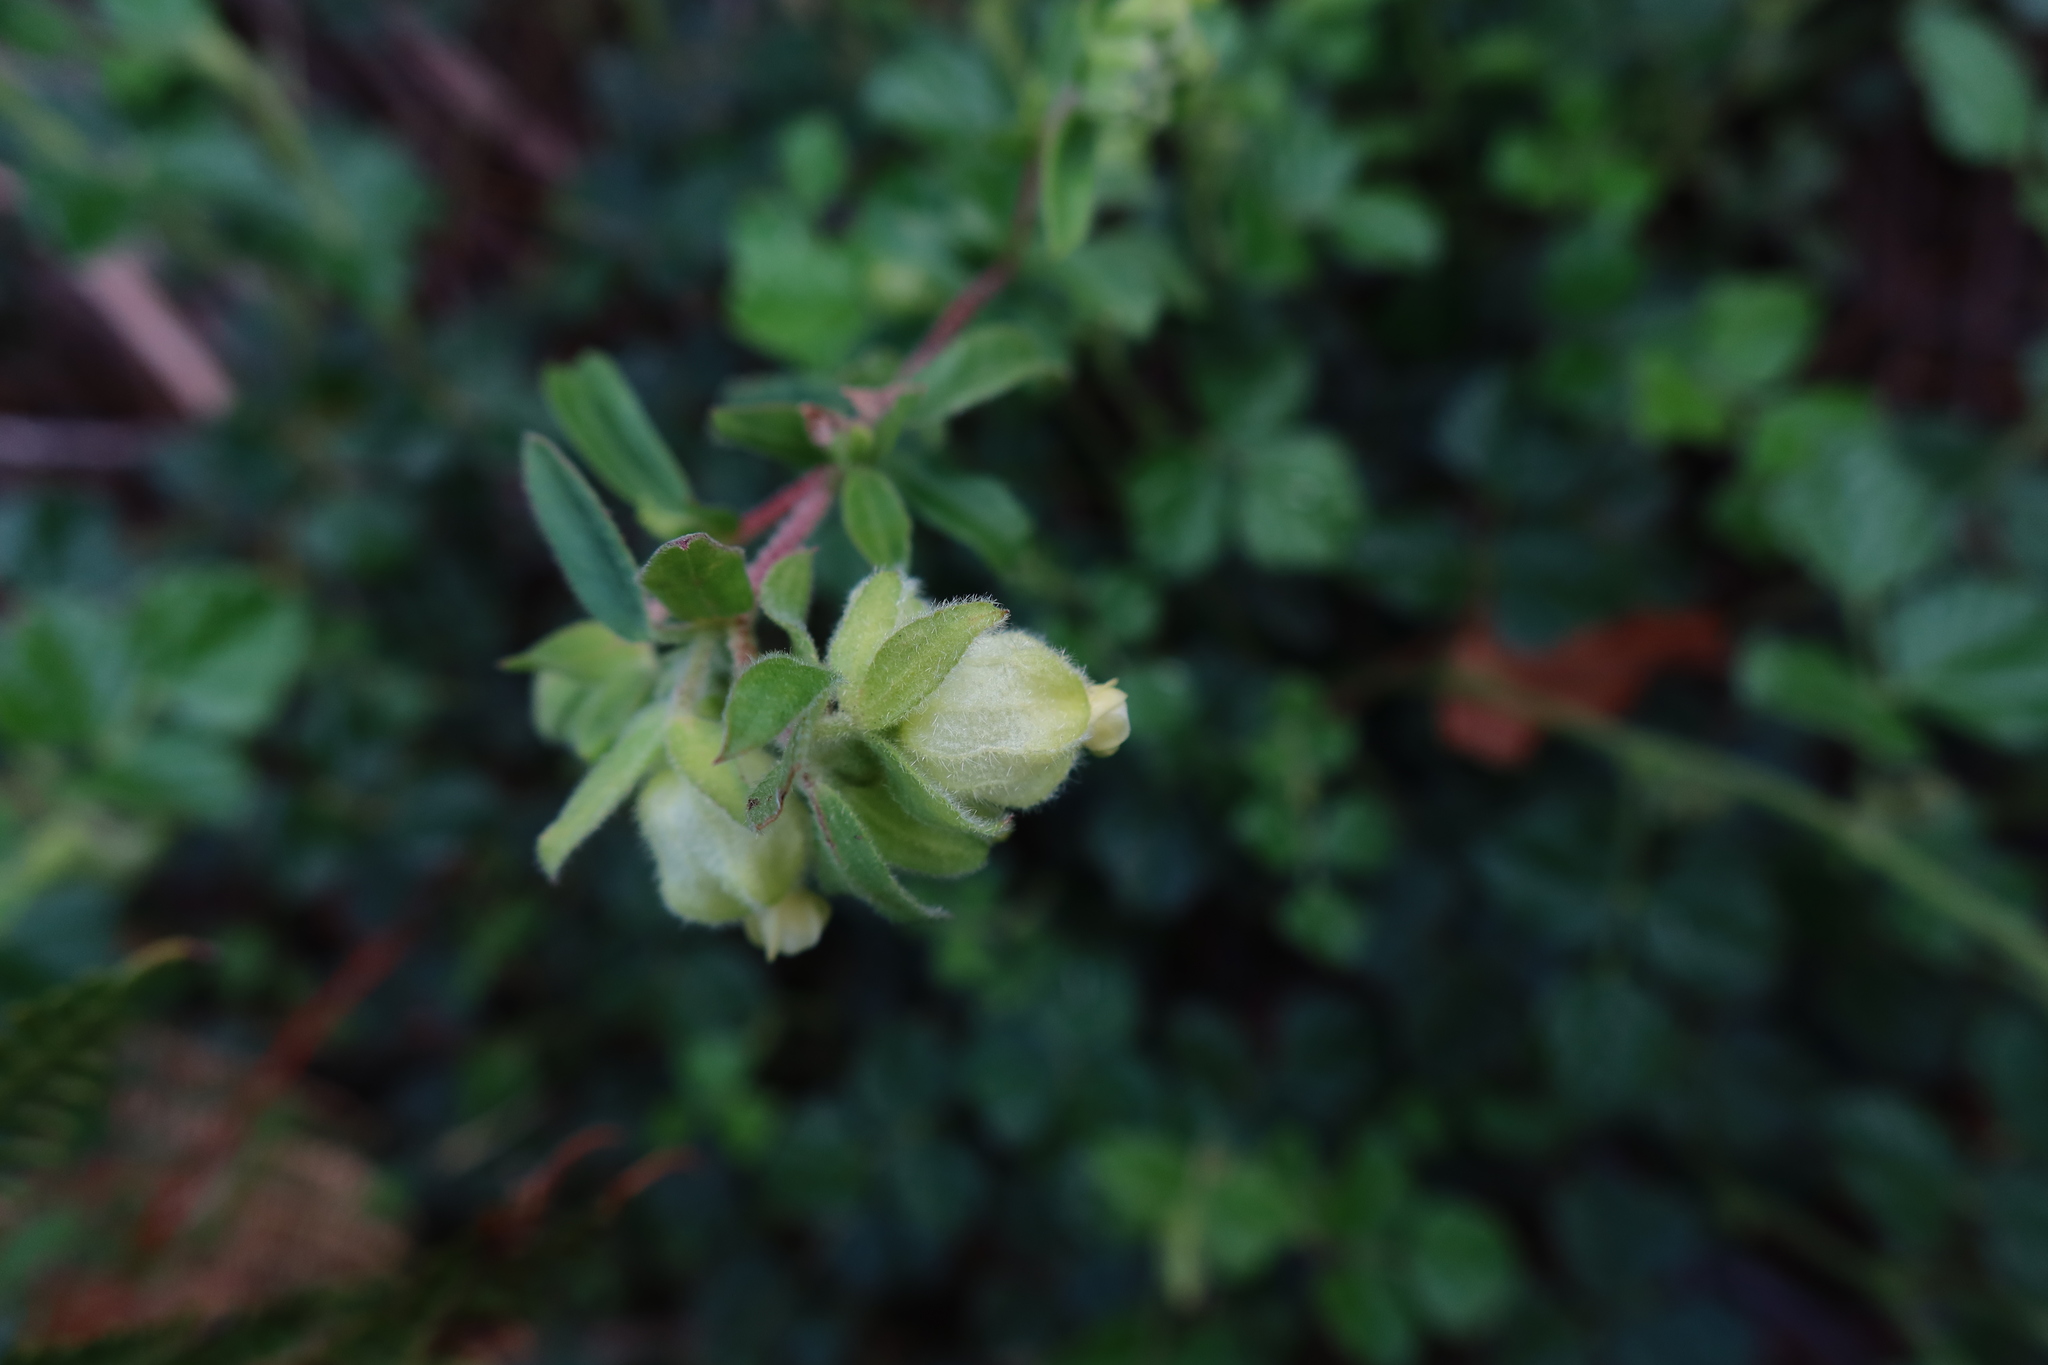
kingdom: Plantae
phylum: Tracheophyta
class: Magnoliopsida
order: Malvales
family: Malvaceae
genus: Hermannia
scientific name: Hermannia hyssopifolia
